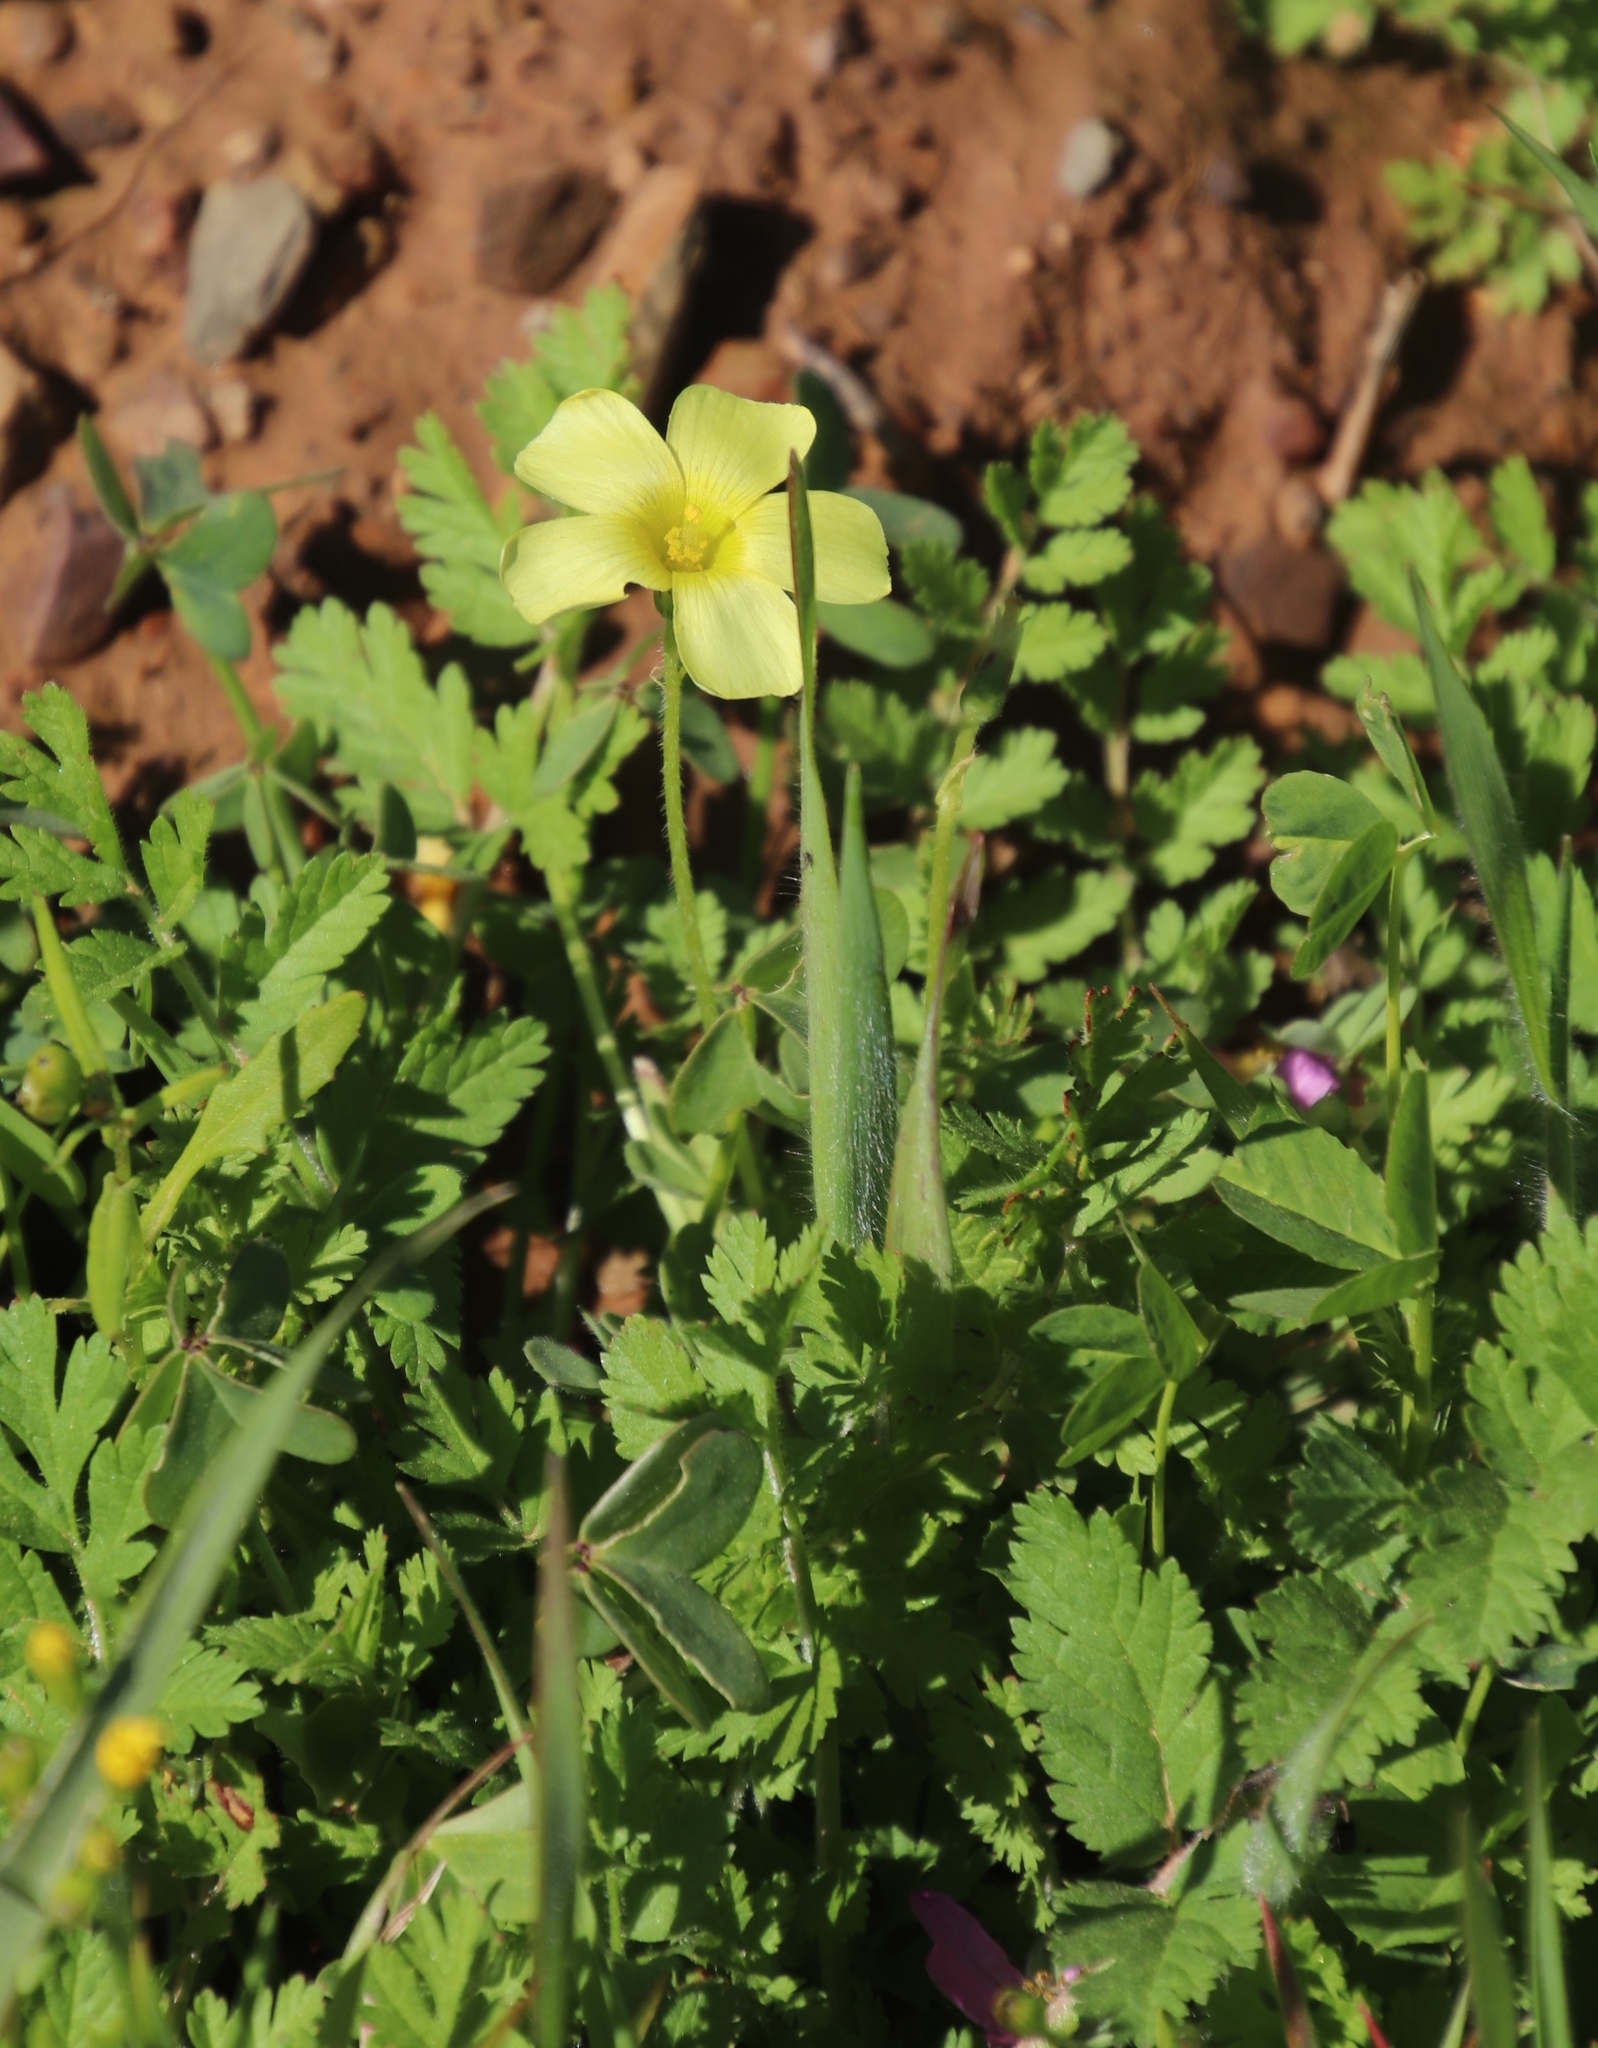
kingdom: Plantae
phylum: Tracheophyta
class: Magnoliopsida
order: Oxalidales
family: Oxalidaceae
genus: Oxalis
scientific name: Oxalis obtusa
